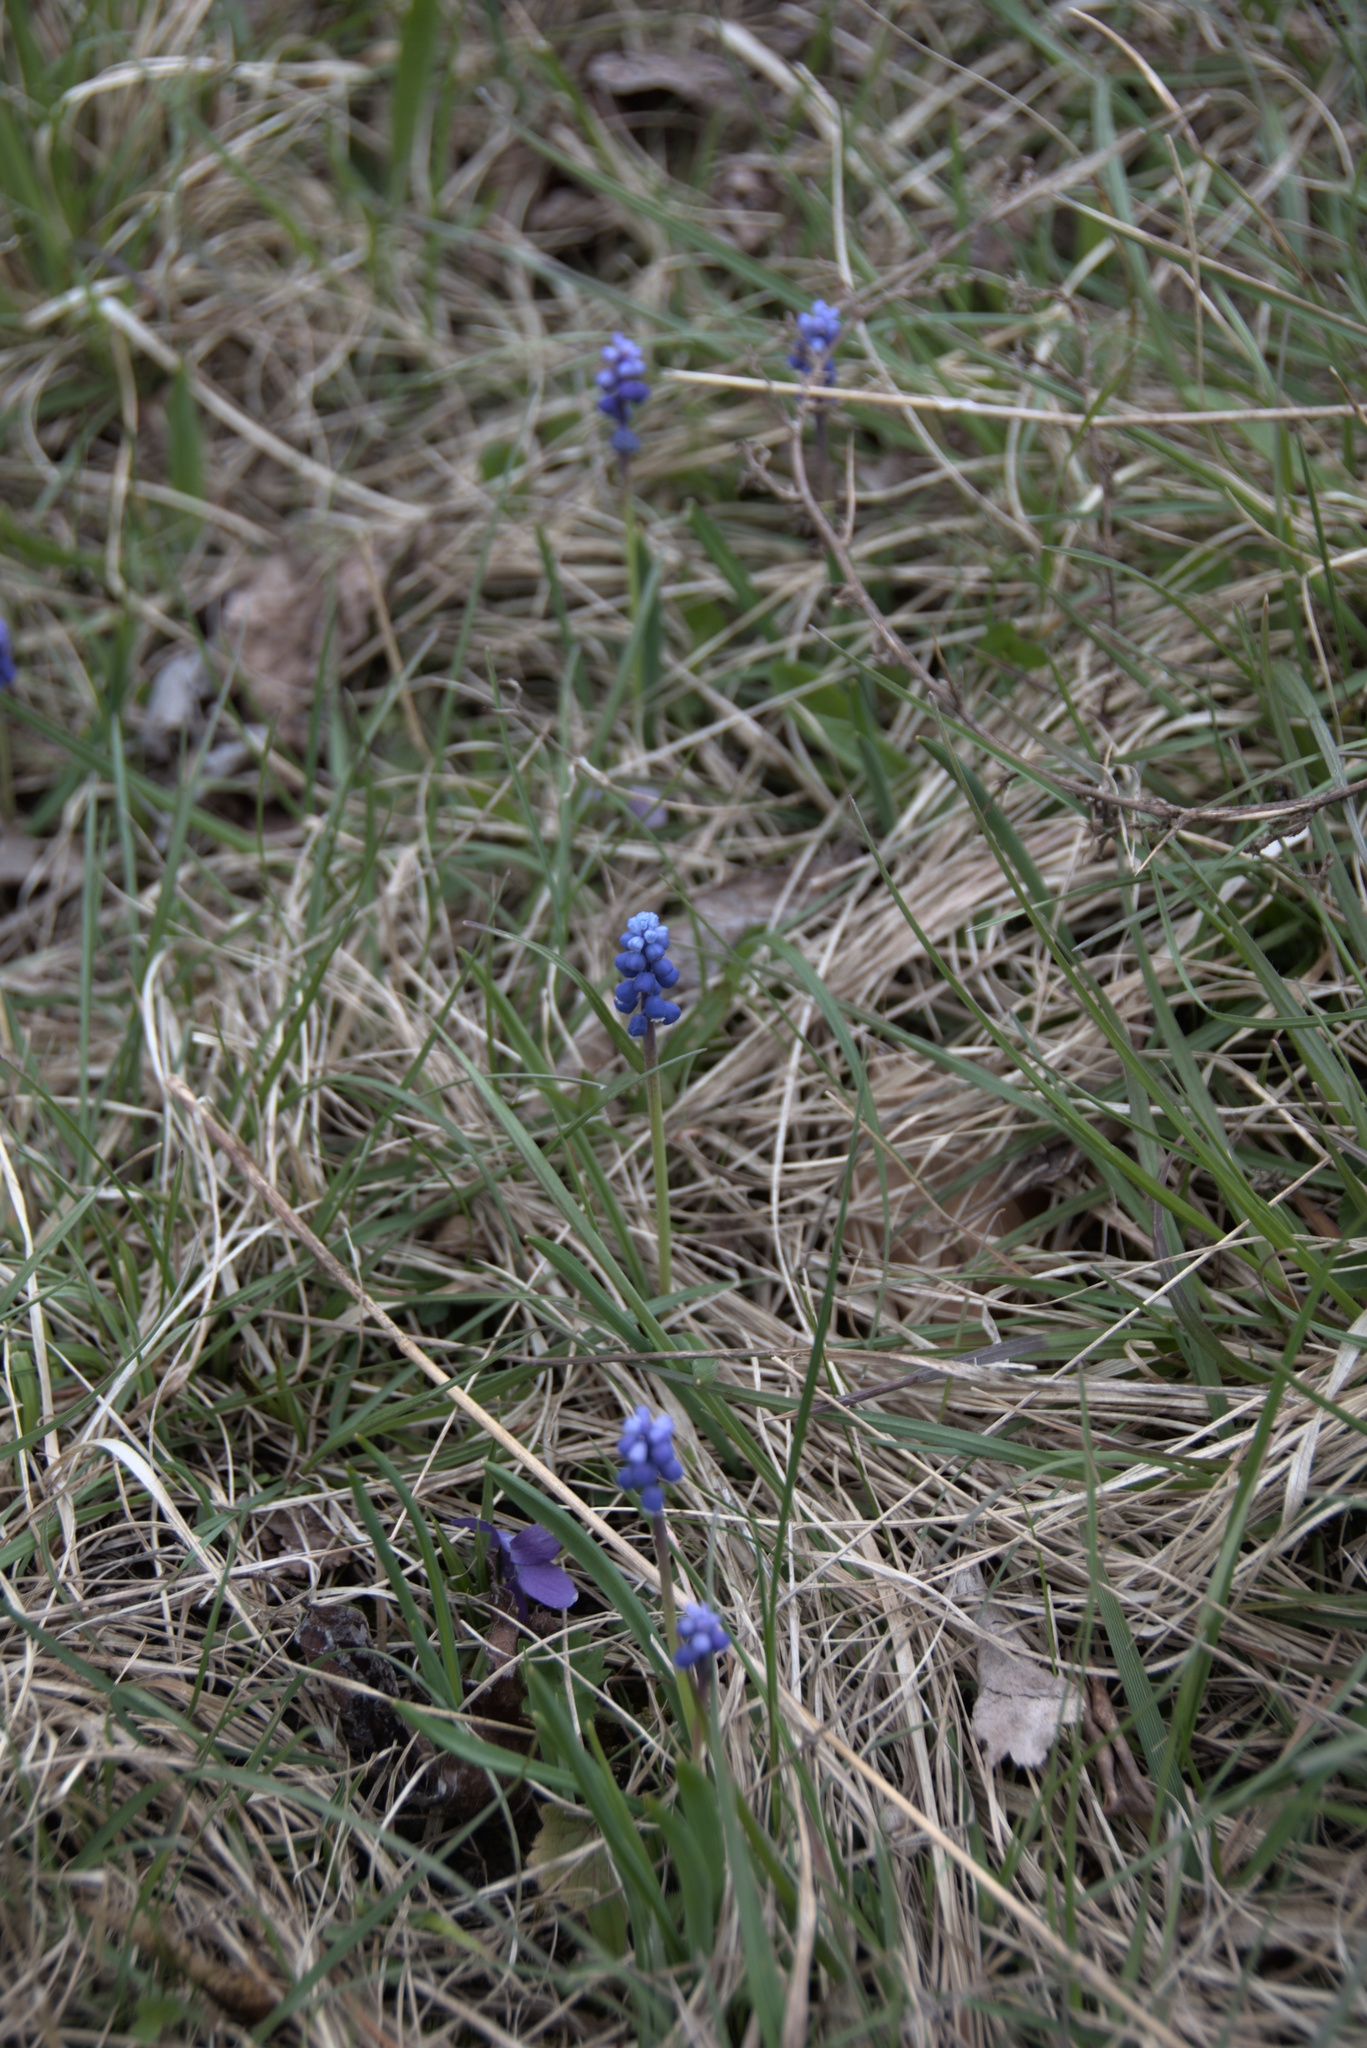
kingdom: Plantae
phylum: Tracheophyta
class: Liliopsida
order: Asparagales
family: Asparagaceae
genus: Muscari
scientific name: Muscari botryoides
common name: Compact grape-hyacinth
